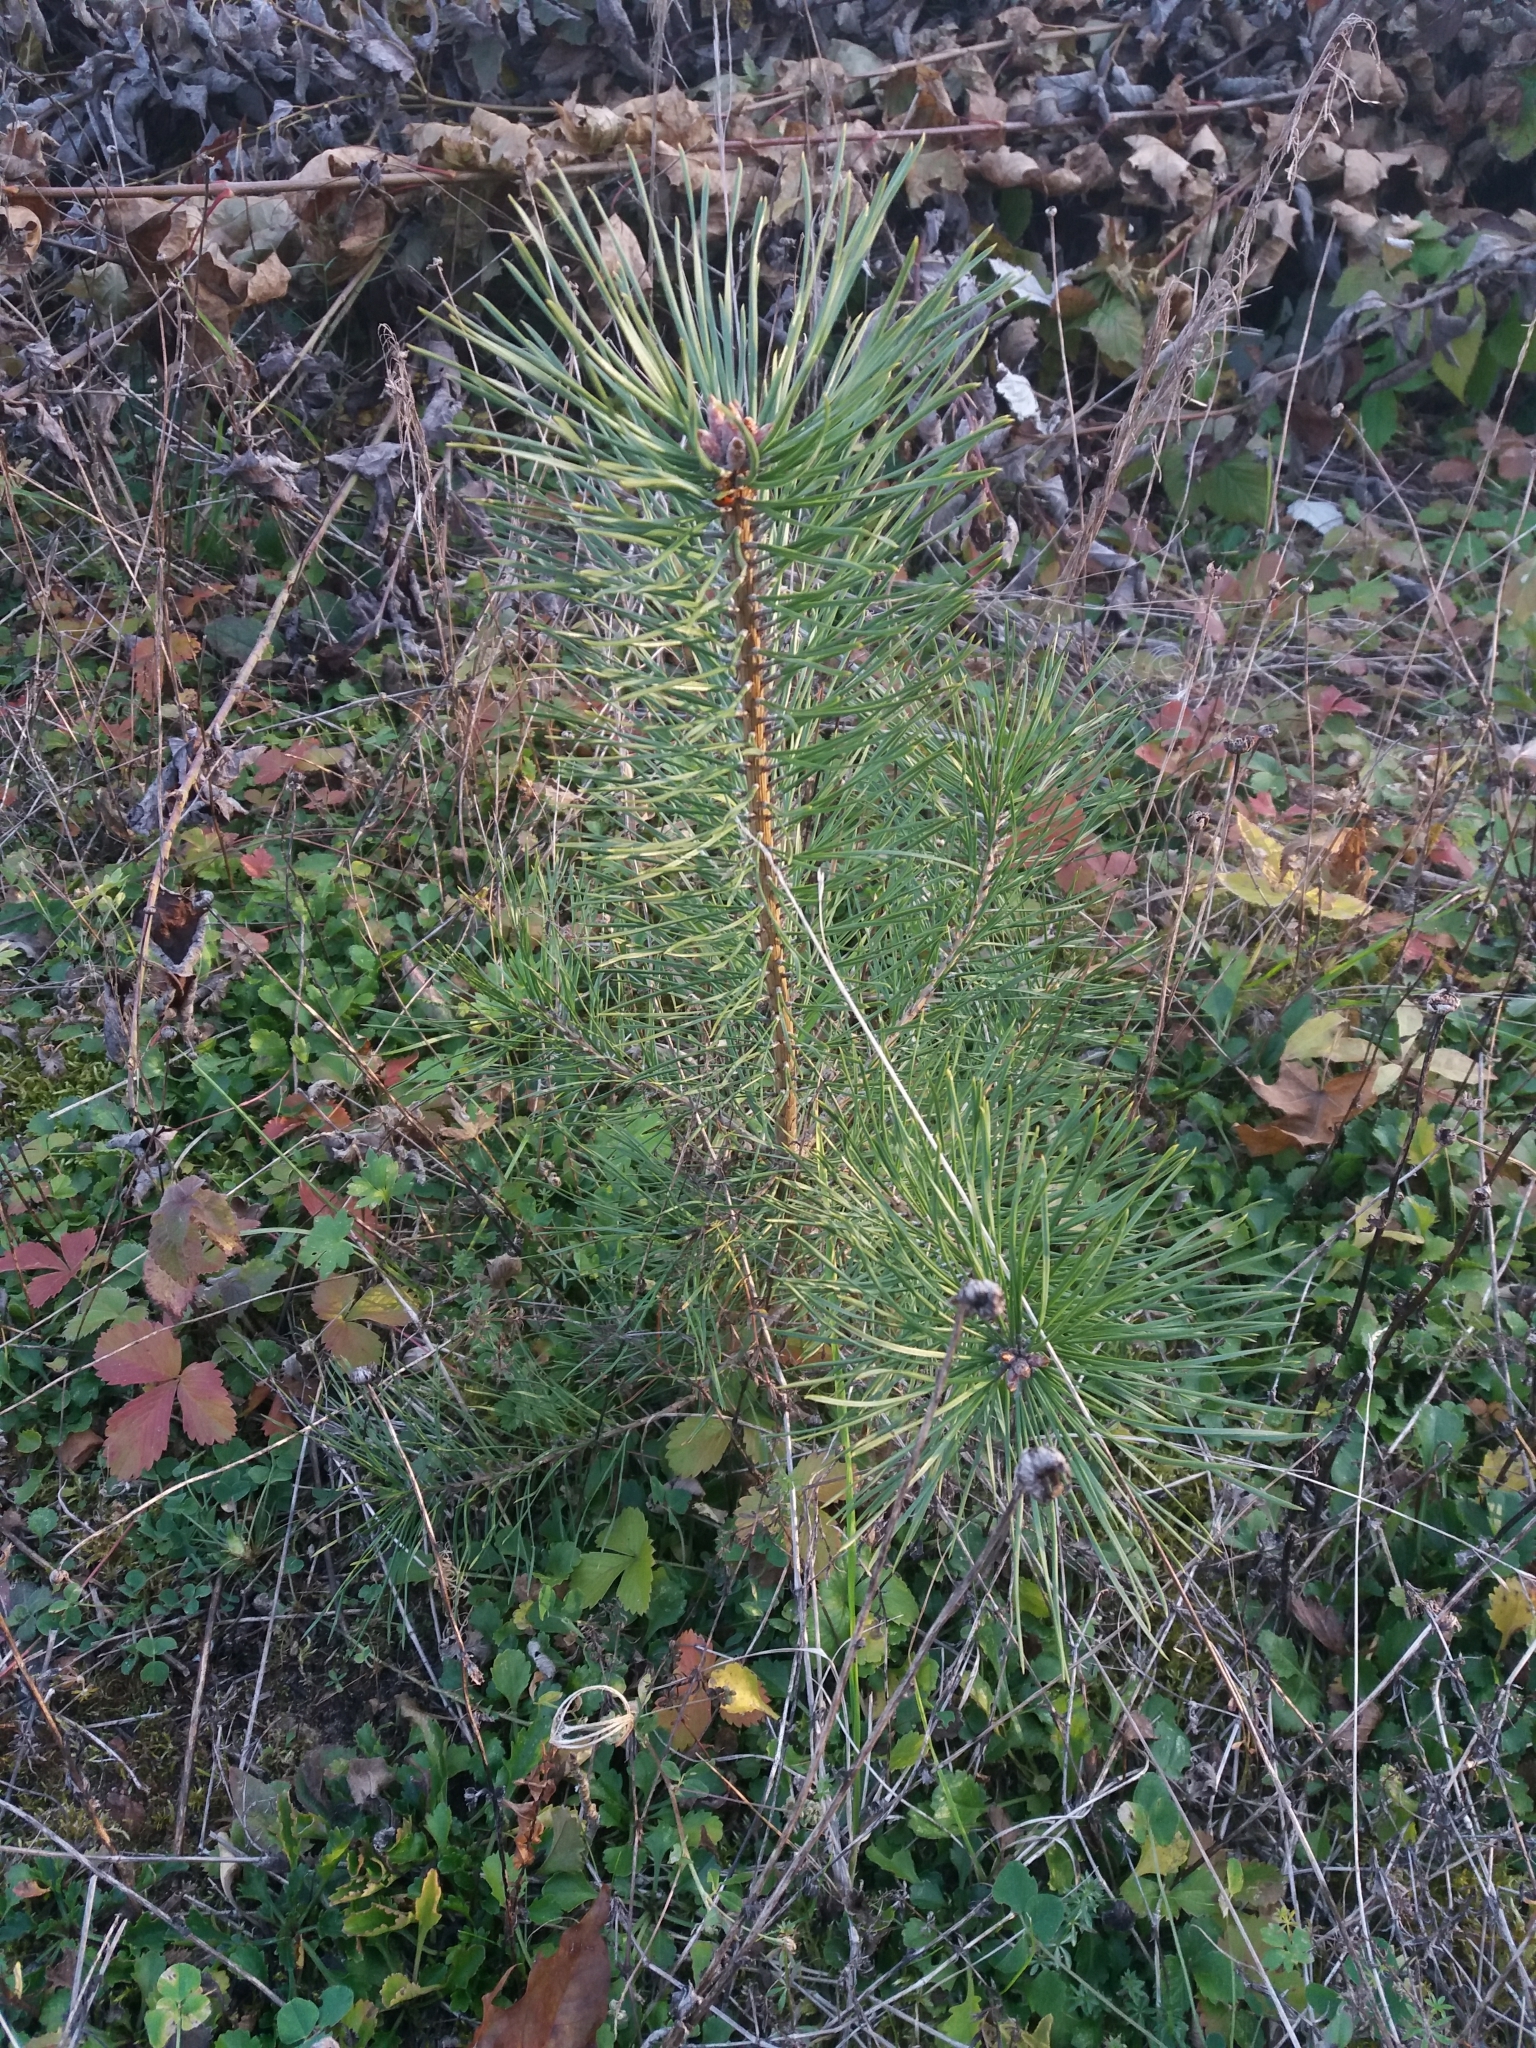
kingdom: Plantae
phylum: Tracheophyta
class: Pinopsida
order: Pinales
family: Pinaceae
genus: Pinus
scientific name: Pinus sylvestris
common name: Scots pine
